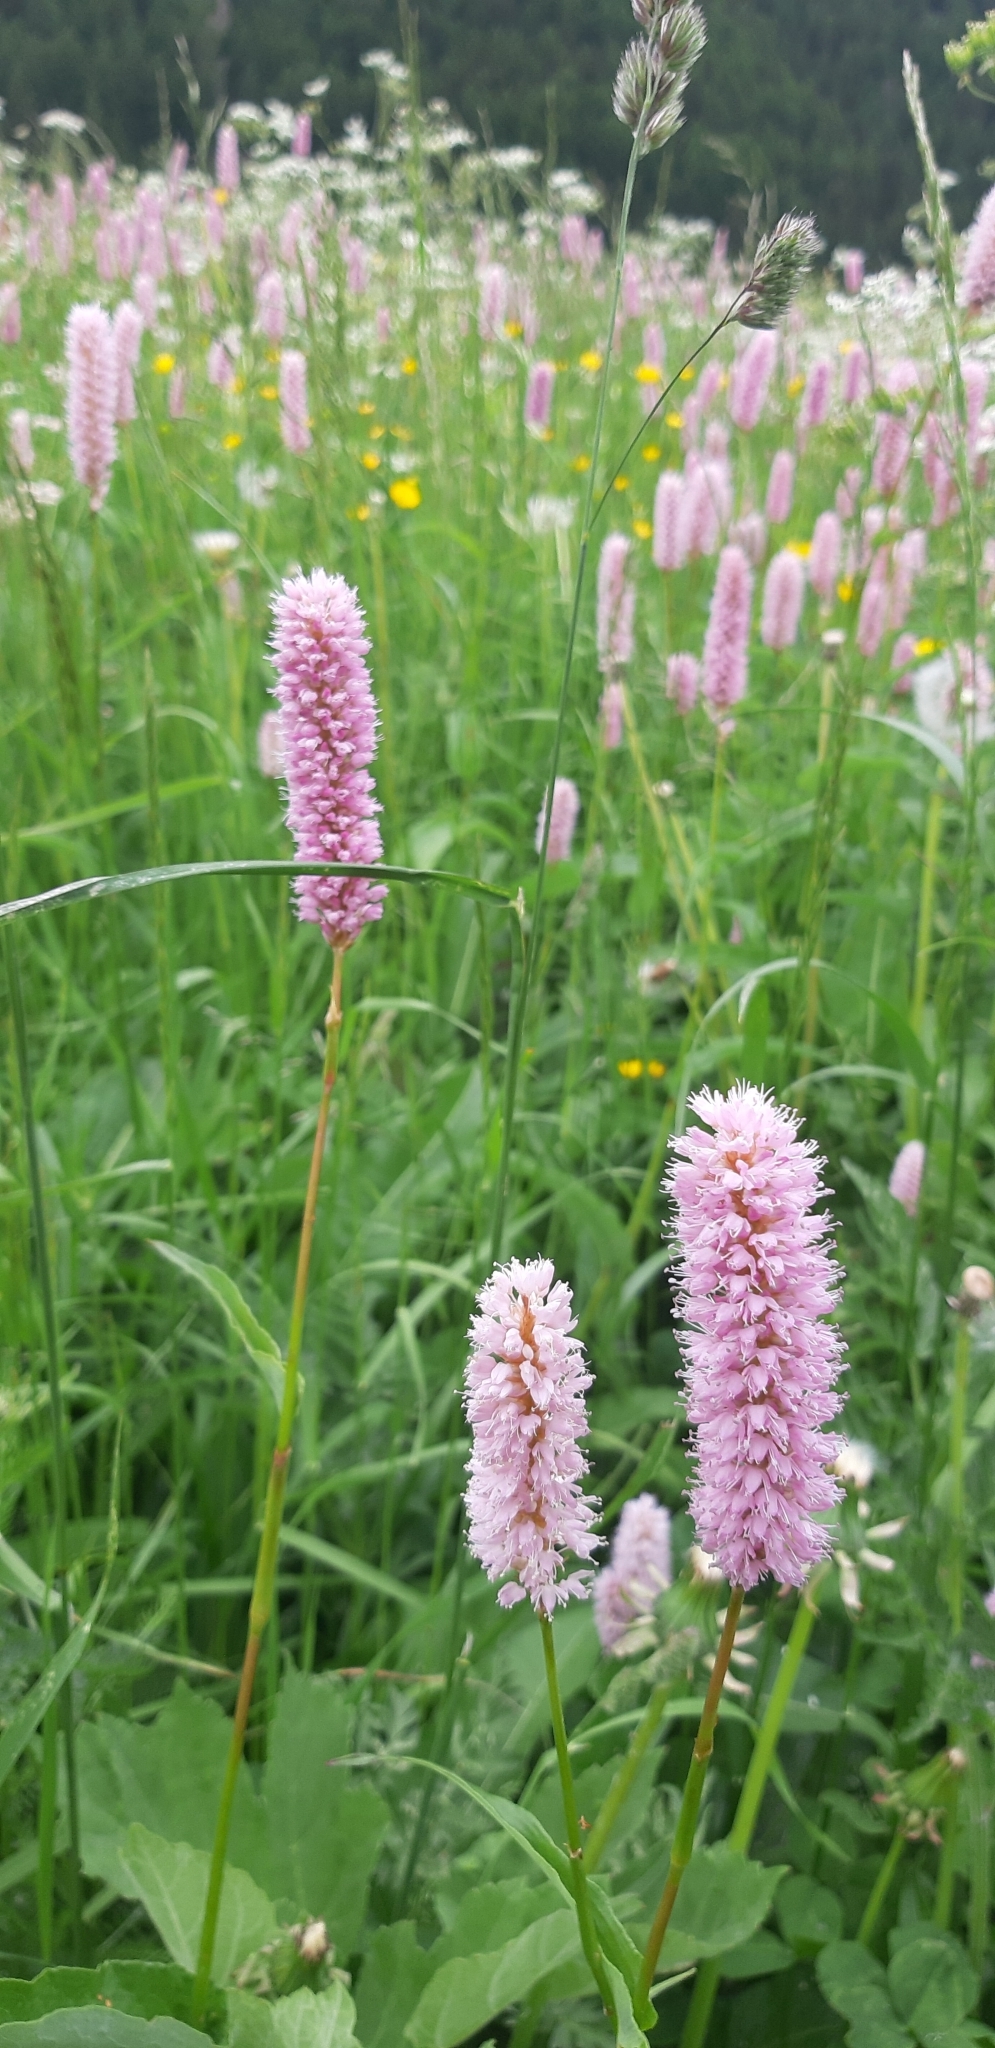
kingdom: Plantae
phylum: Tracheophyta
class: Magnoliopsida
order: Caryophyllales
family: Polygonaceae
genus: Bistorta
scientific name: Bistorta officinalis
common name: Common bistort
